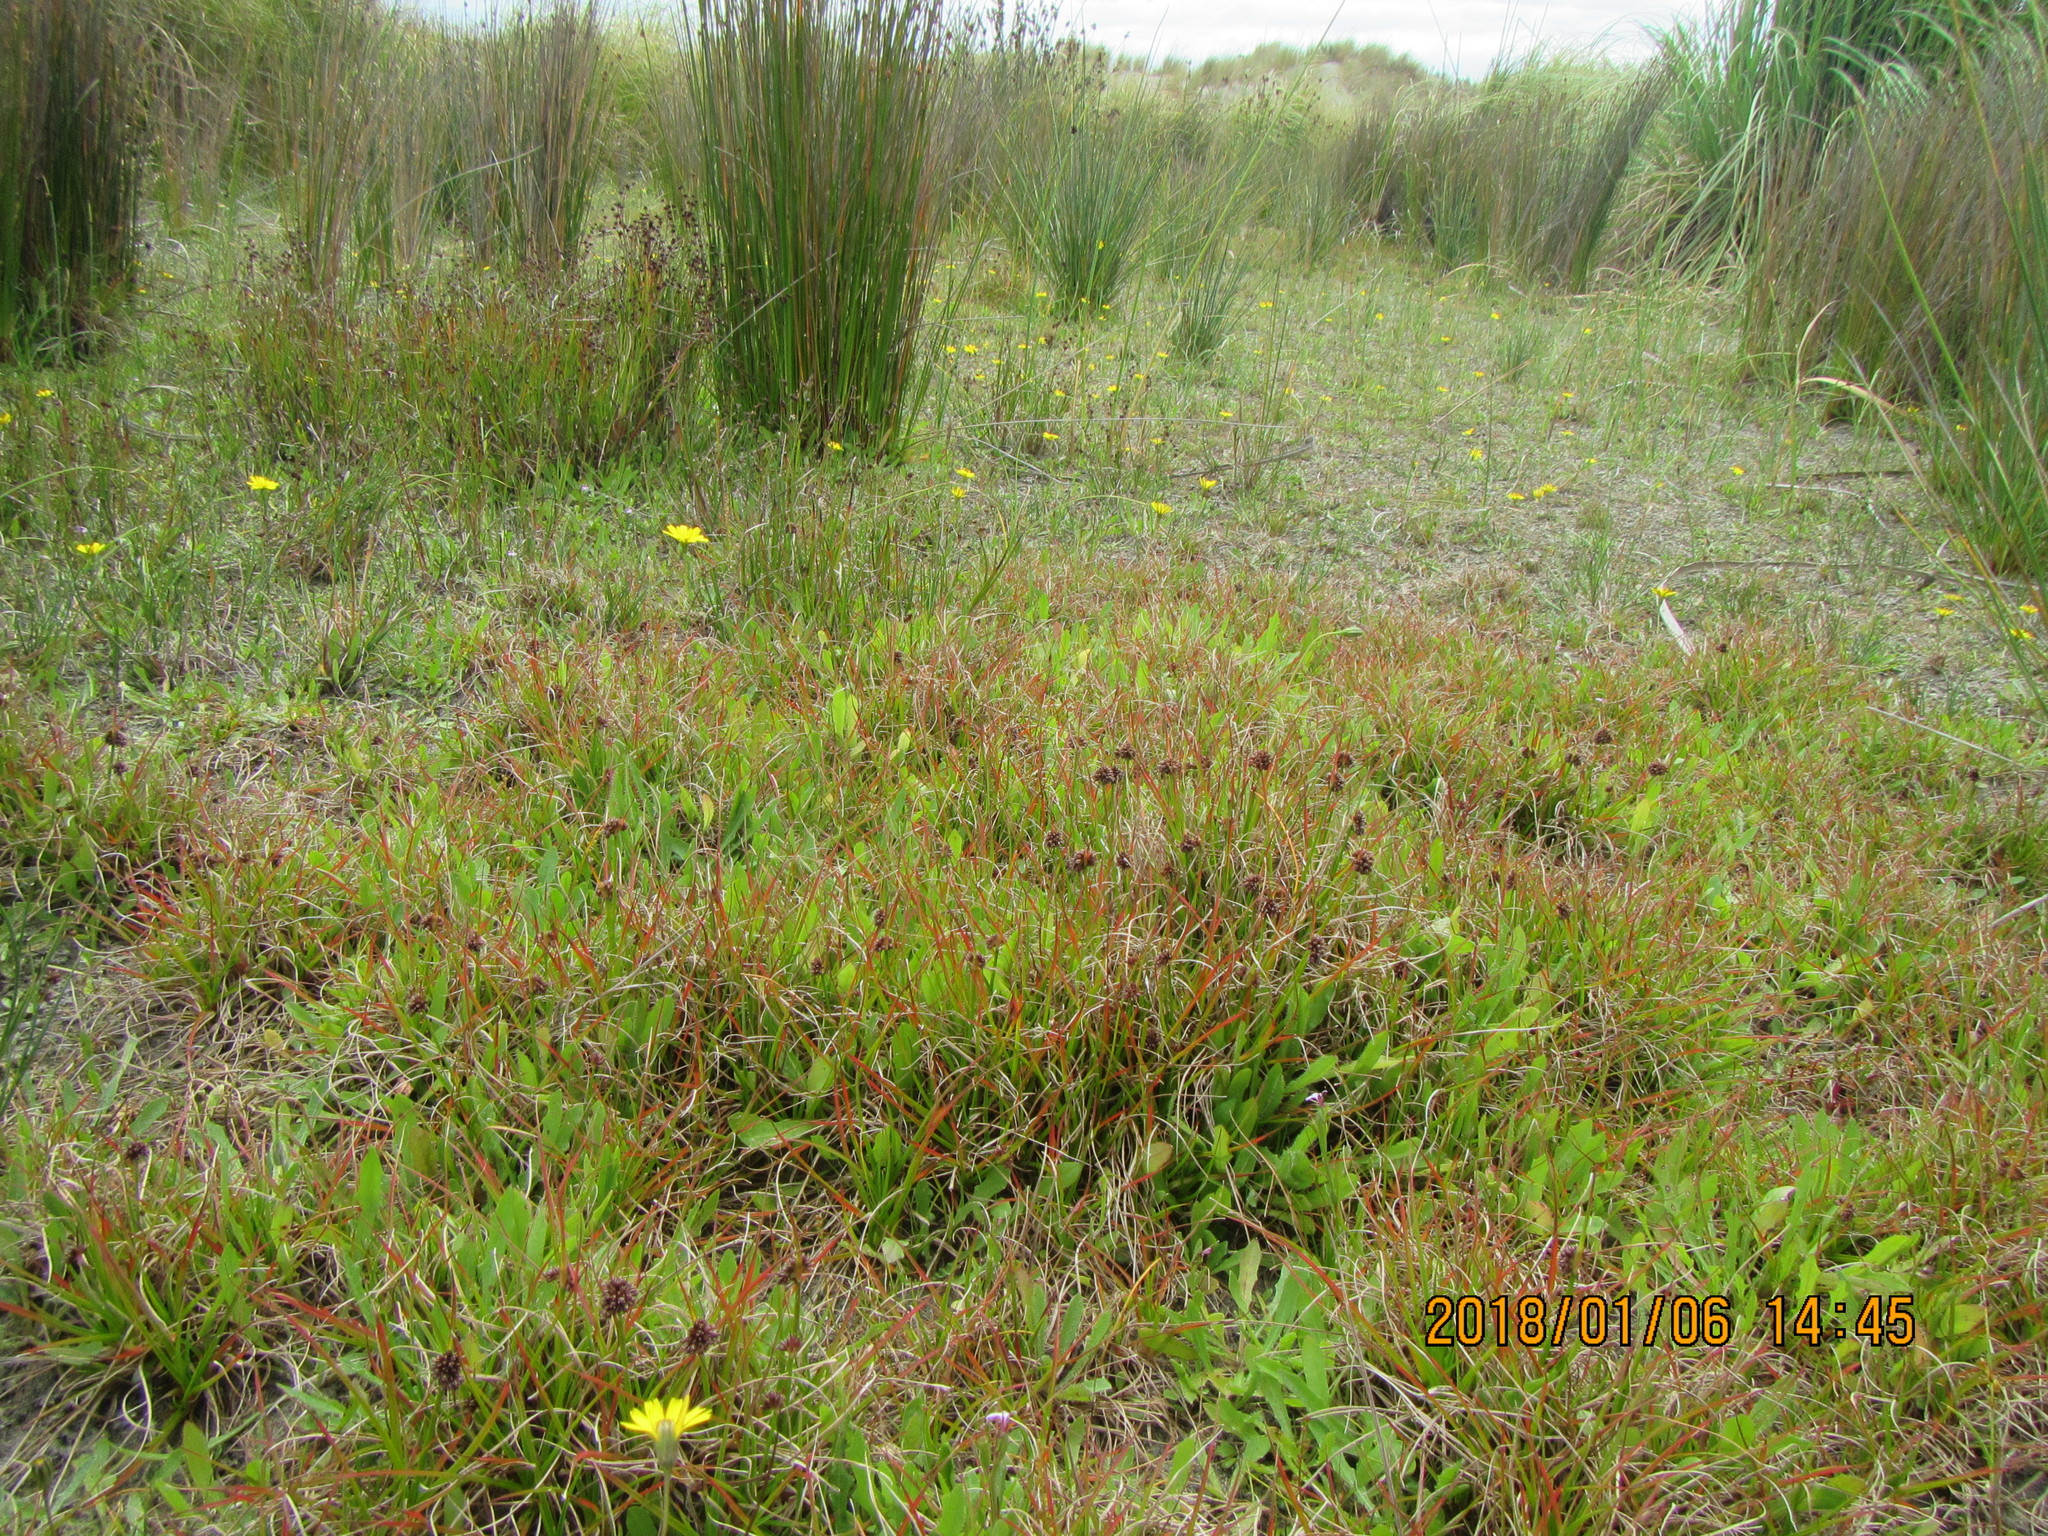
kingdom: Plantae
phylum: Tracheophyta
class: Liliopsida
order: Poales
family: Juncaceae
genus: Juncus
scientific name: Juncus caespiticius
